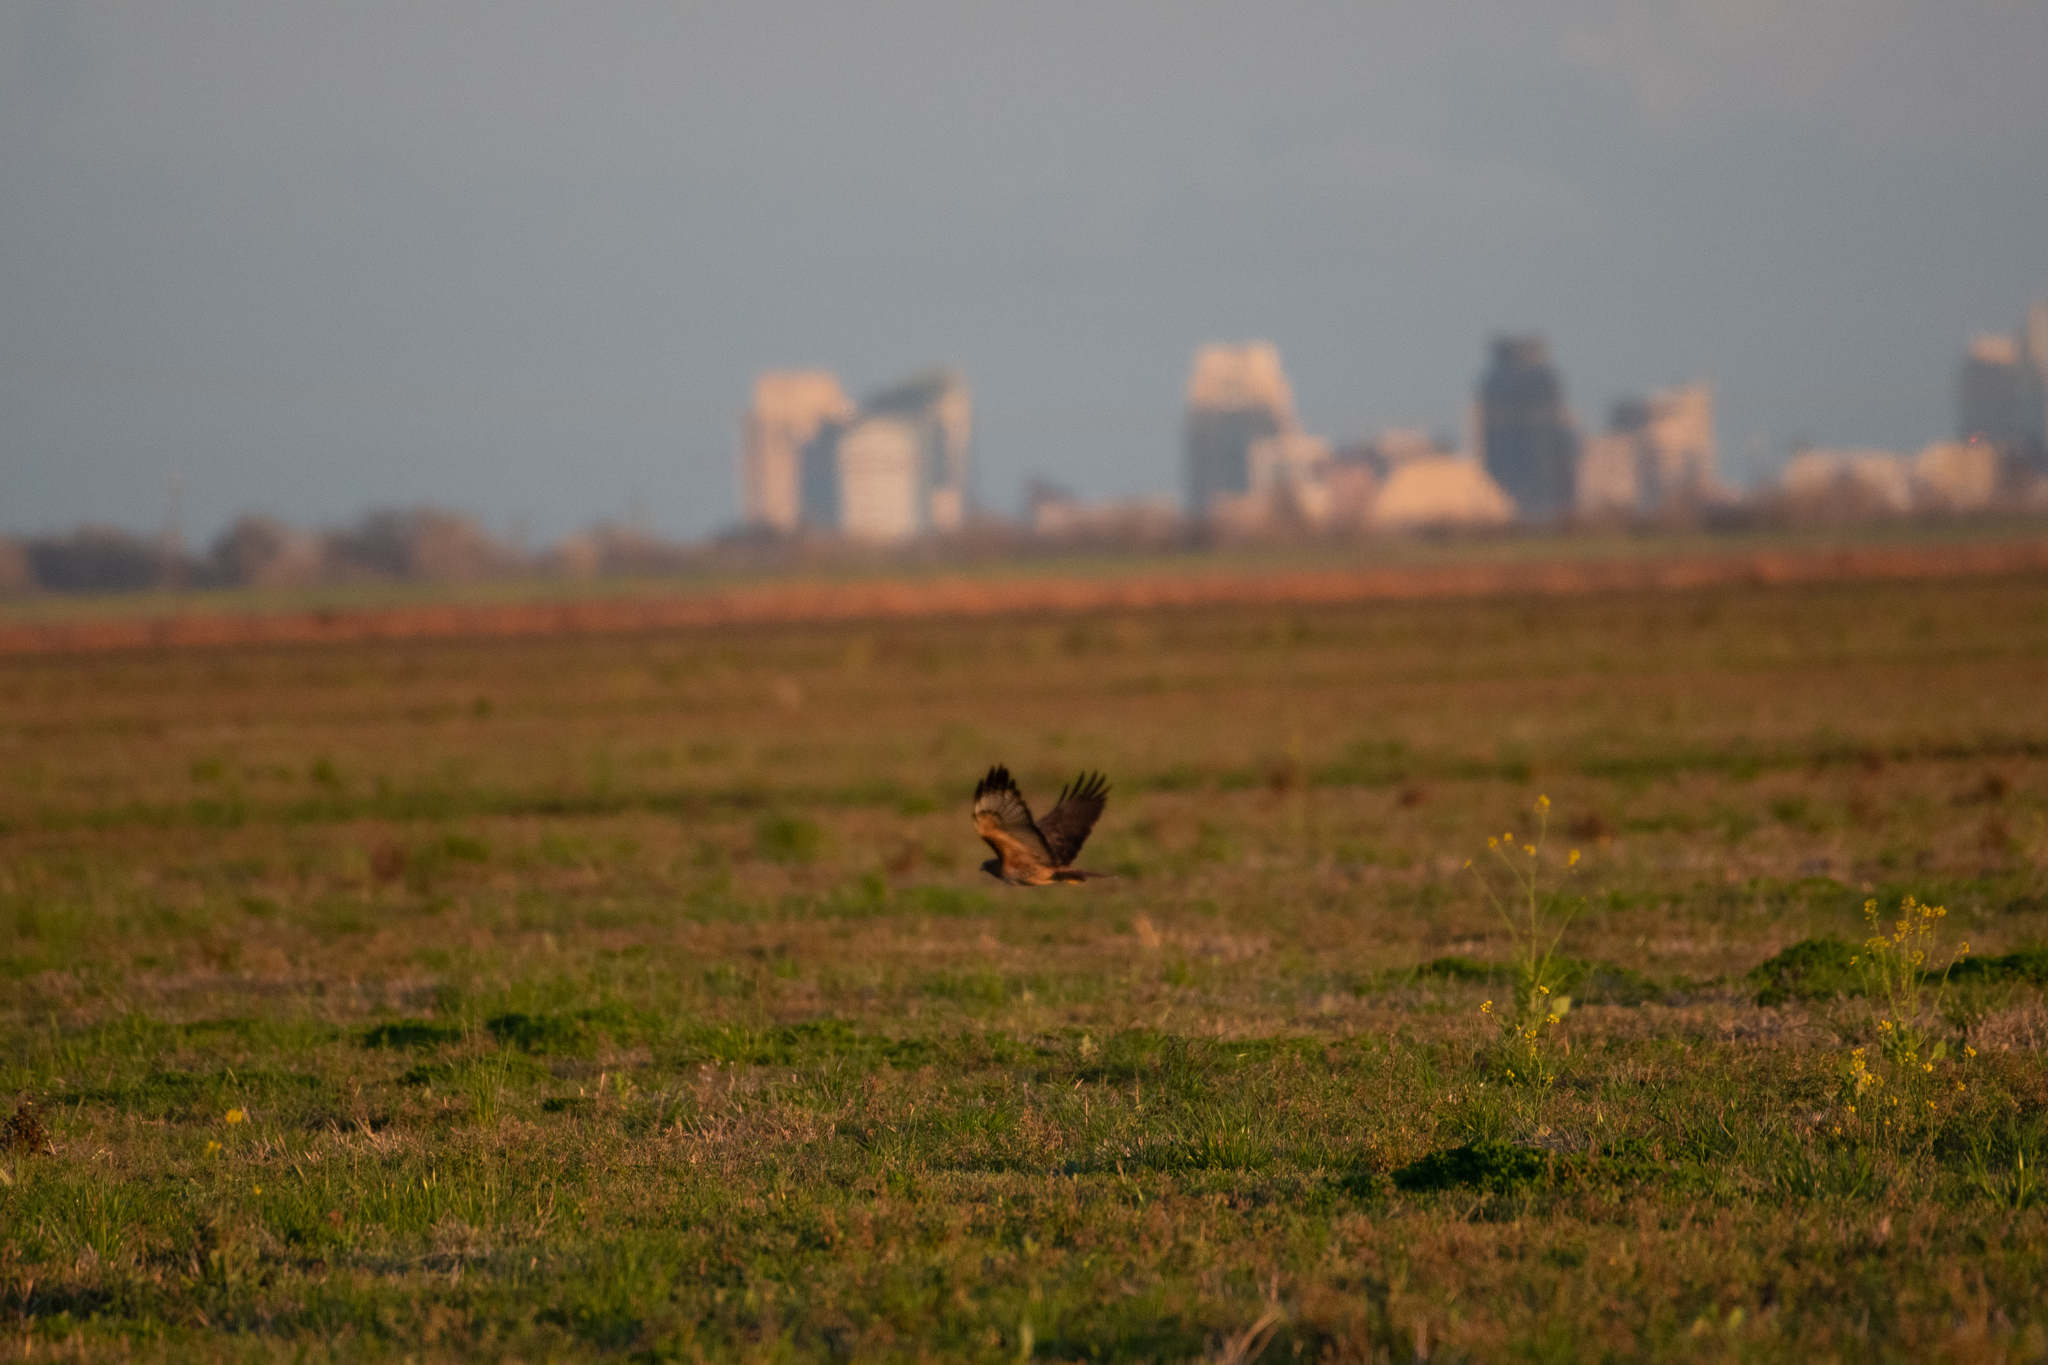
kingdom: Animalia
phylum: Chordata
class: Aves
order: Accipitriformes
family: Accipitridae
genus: Buteo
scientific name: Buteo jamaicensis
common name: Red-tailed hawk
